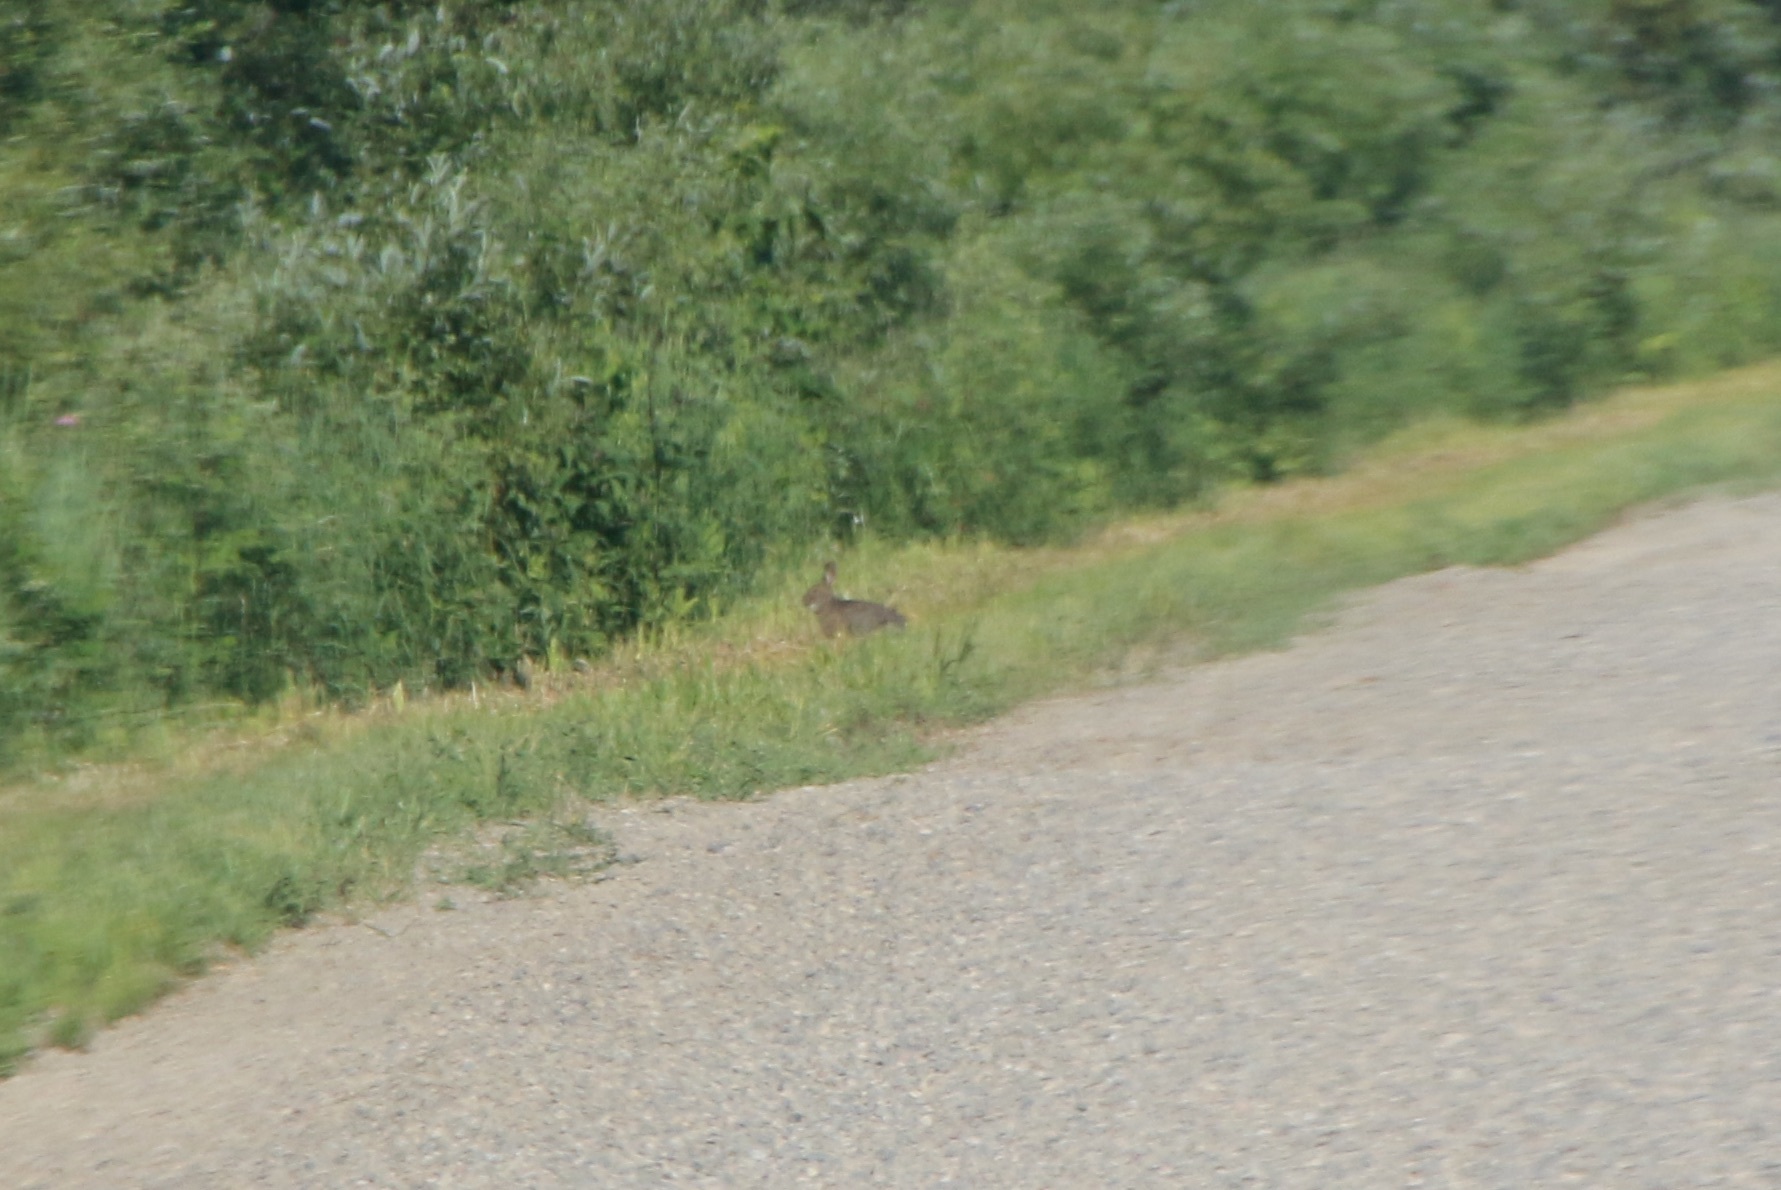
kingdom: Animalia
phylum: Chordata
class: Mammalia
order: Lagomorpha
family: Leporidae
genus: Lepus
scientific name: Lepus americanus
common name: Snowshoe hare
